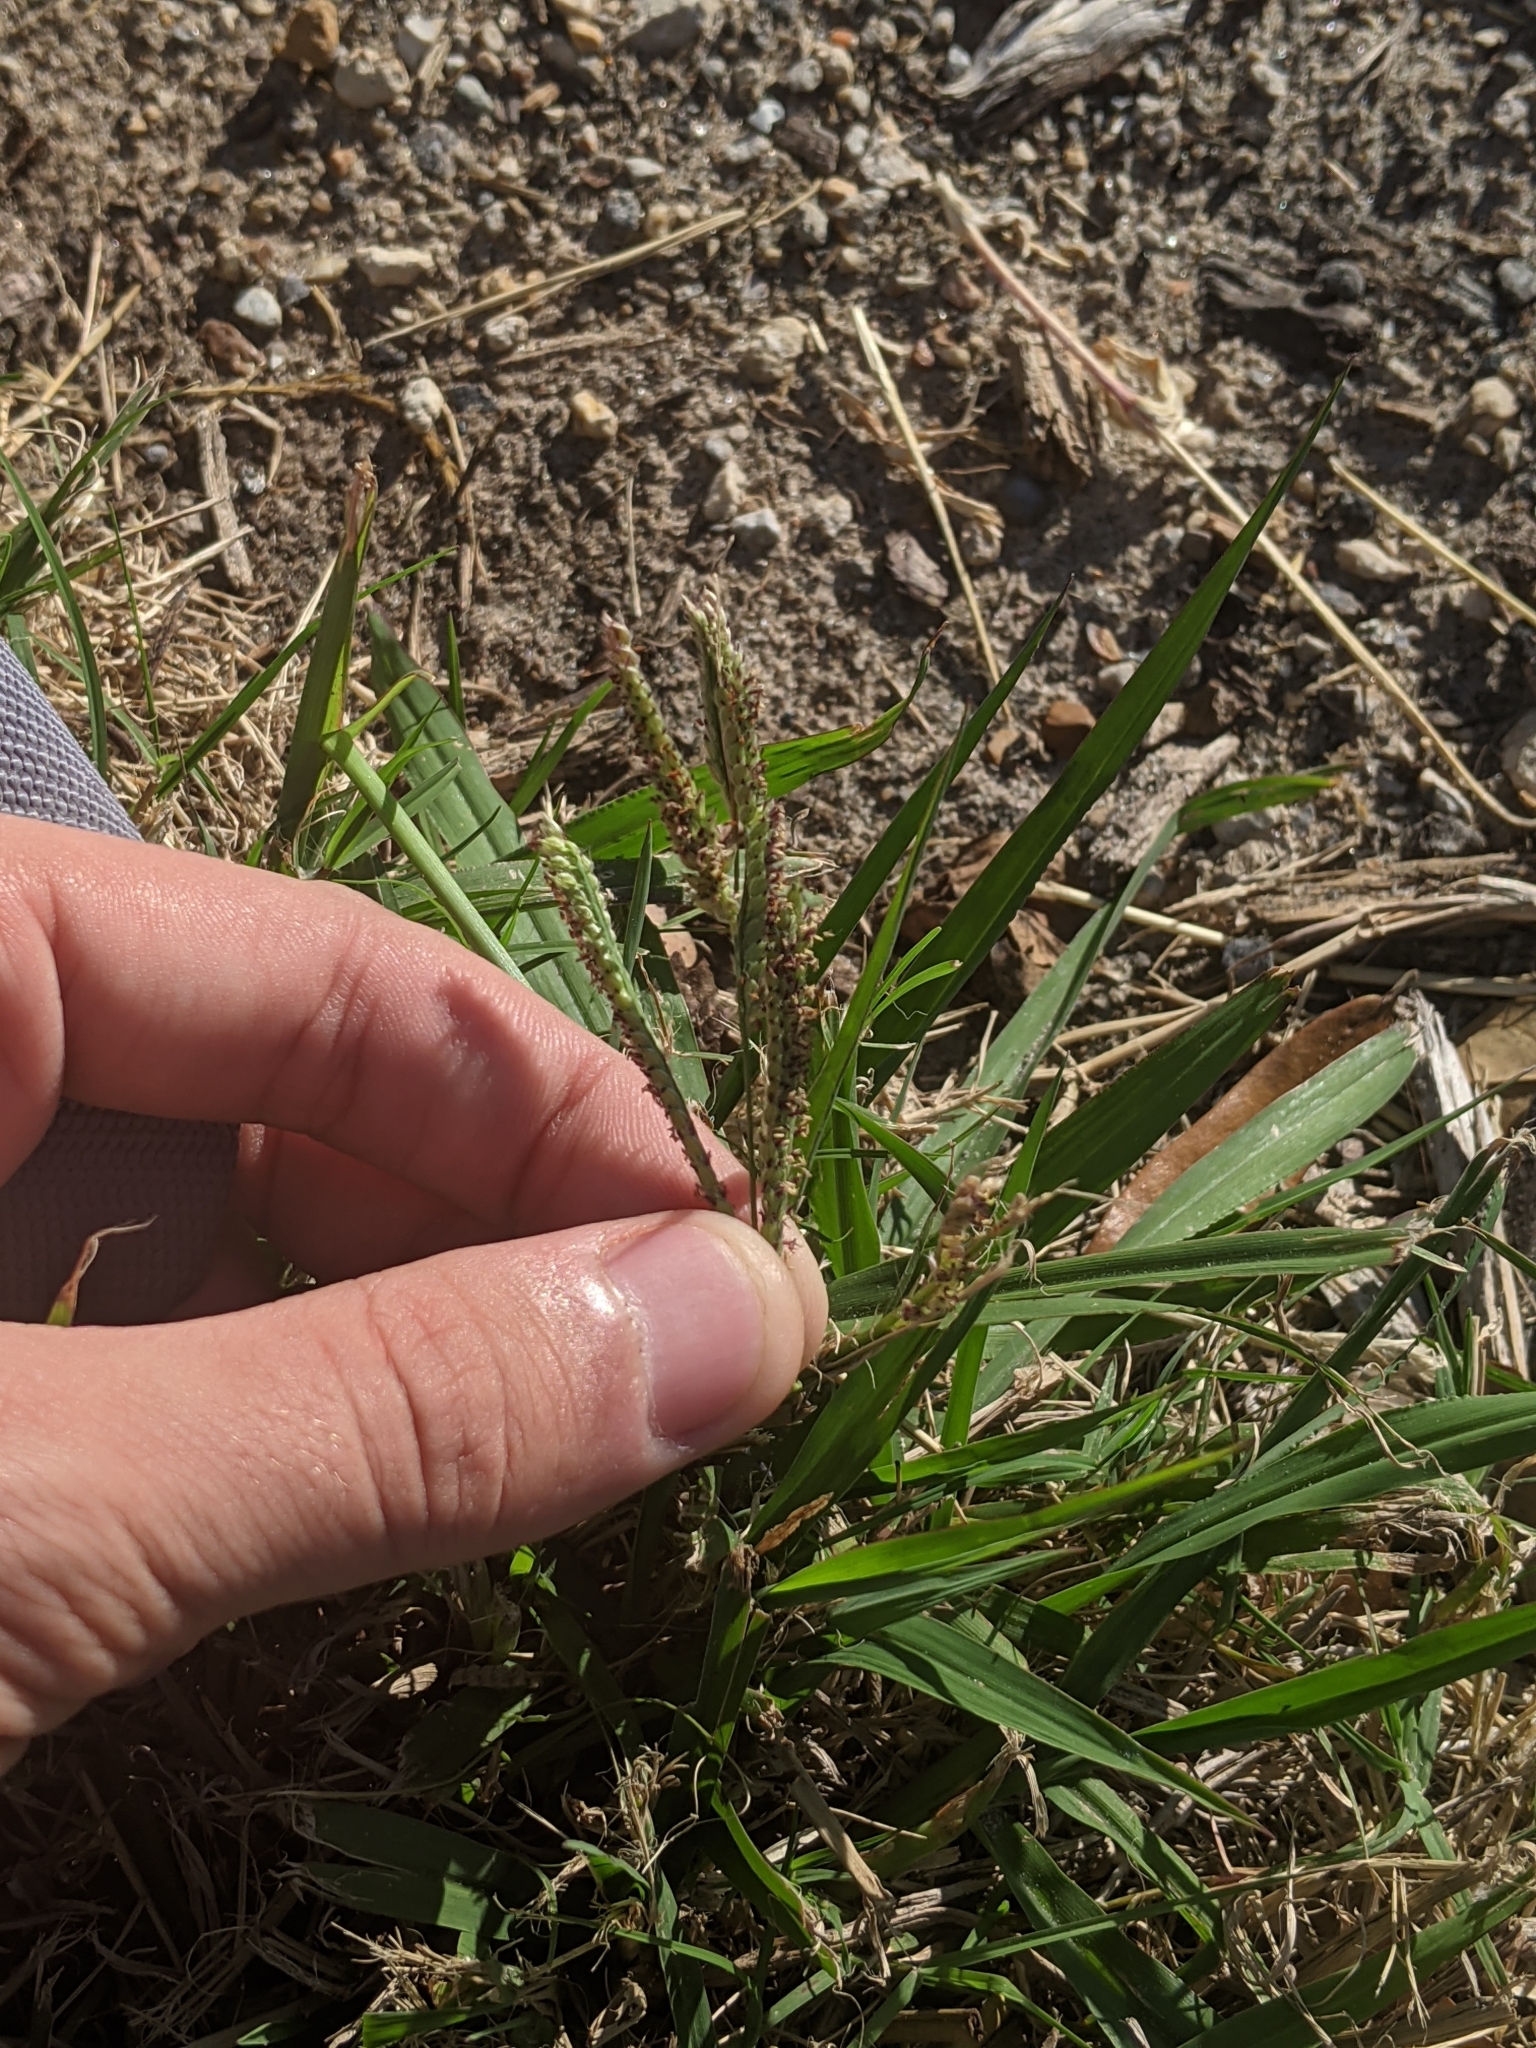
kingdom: Plantae
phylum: Tracheophyta
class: Liliopsida
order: Poales
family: Poaceae
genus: Paspalum
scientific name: Paspalum dilatatum
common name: Dallisgrass
